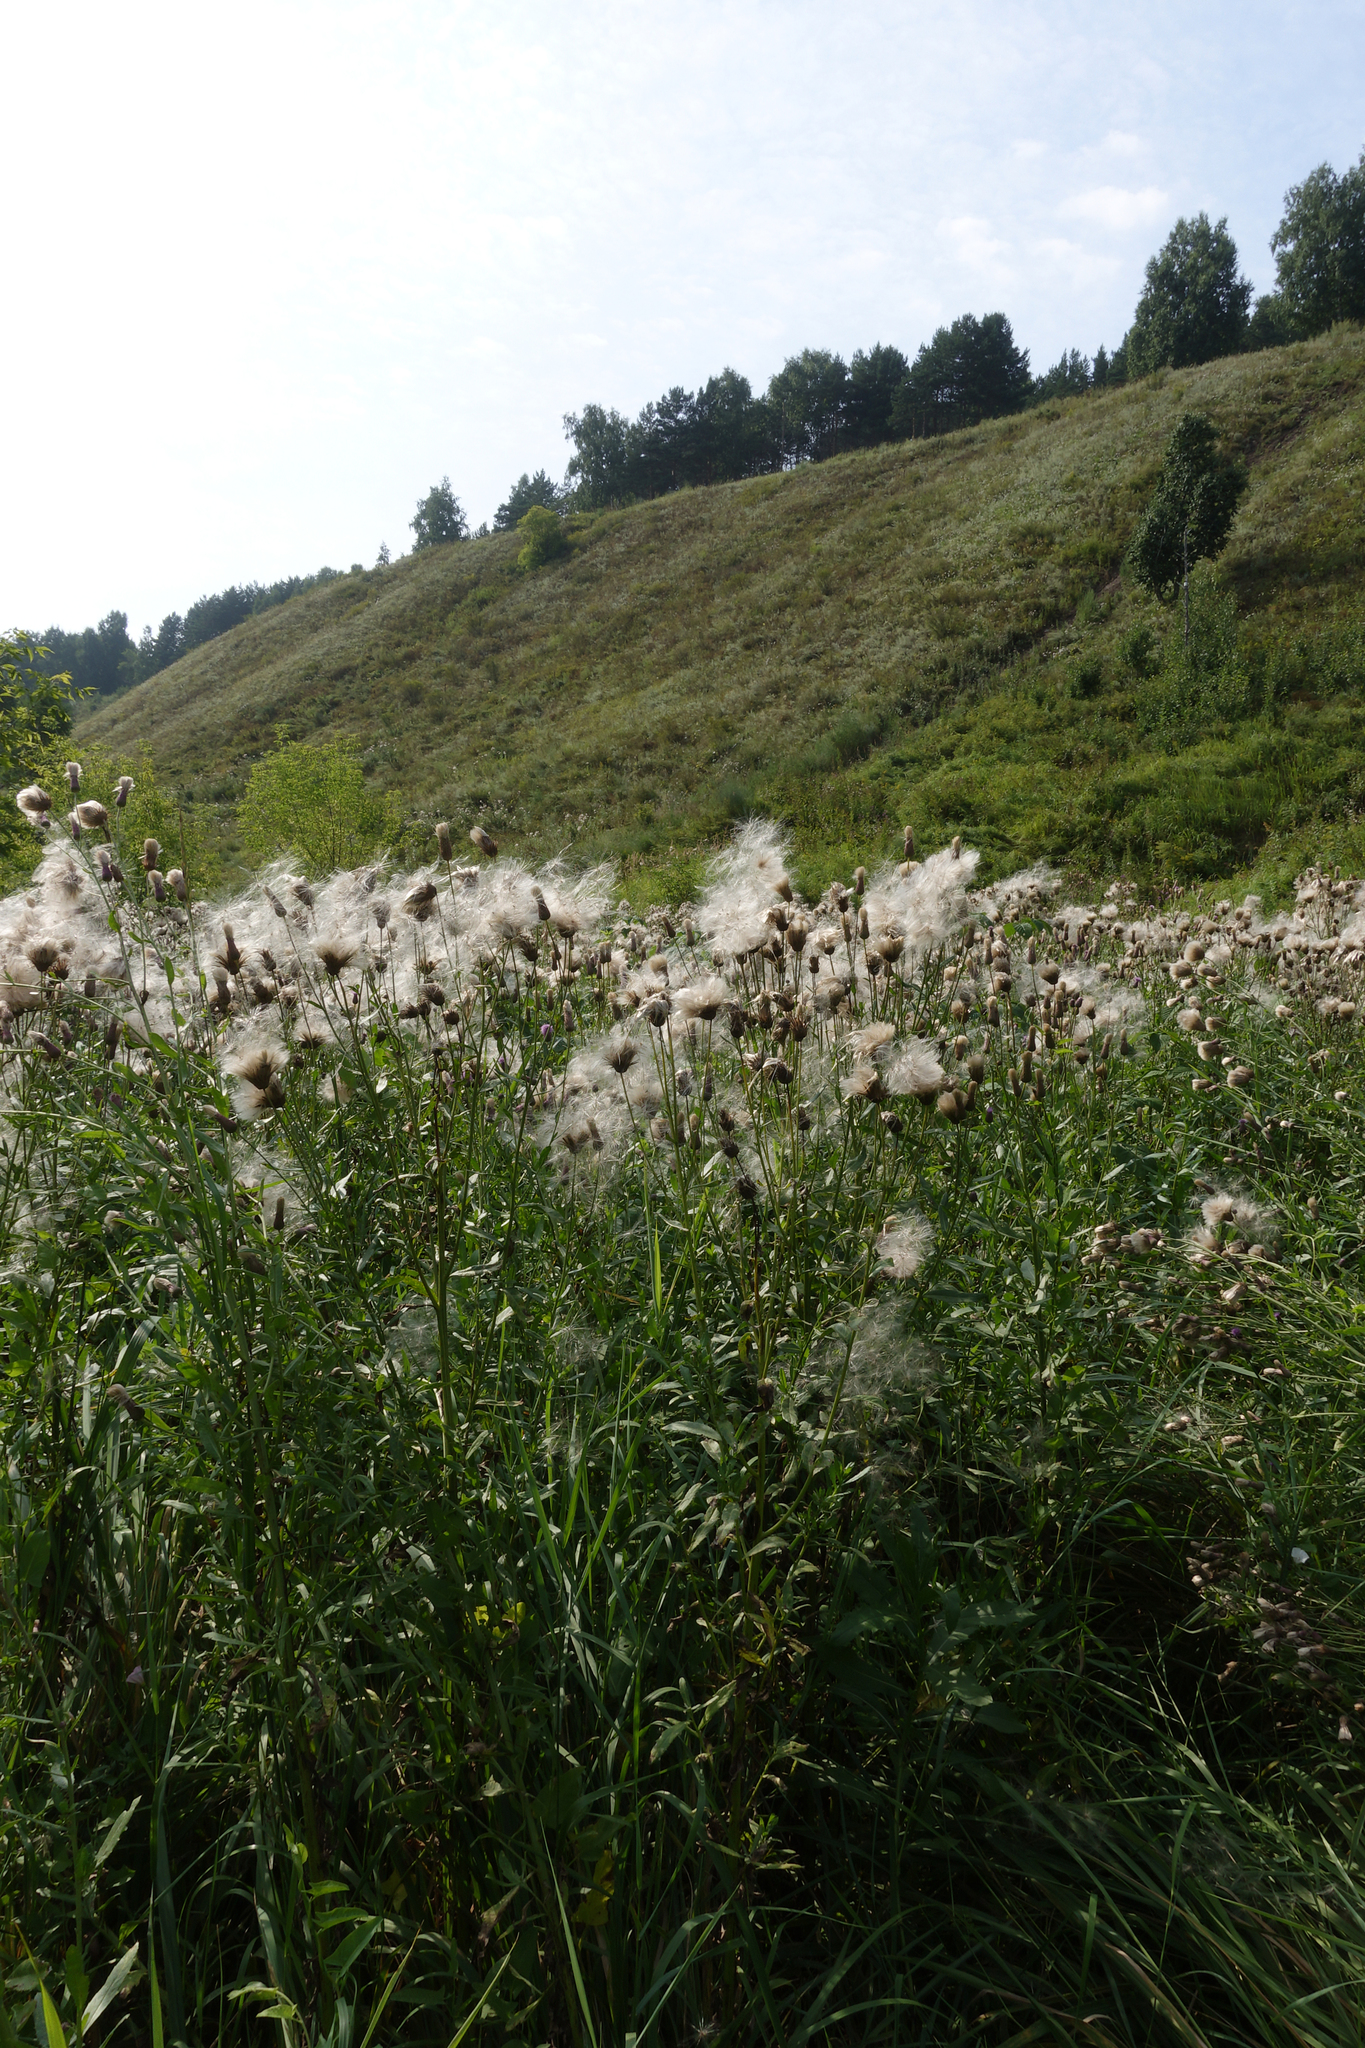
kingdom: Plantae
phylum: Tracheophyta
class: Magnoliopsida
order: Asterales
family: Asteraceae
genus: Cirsium
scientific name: Cirsium arvense
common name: Creeping thistle
